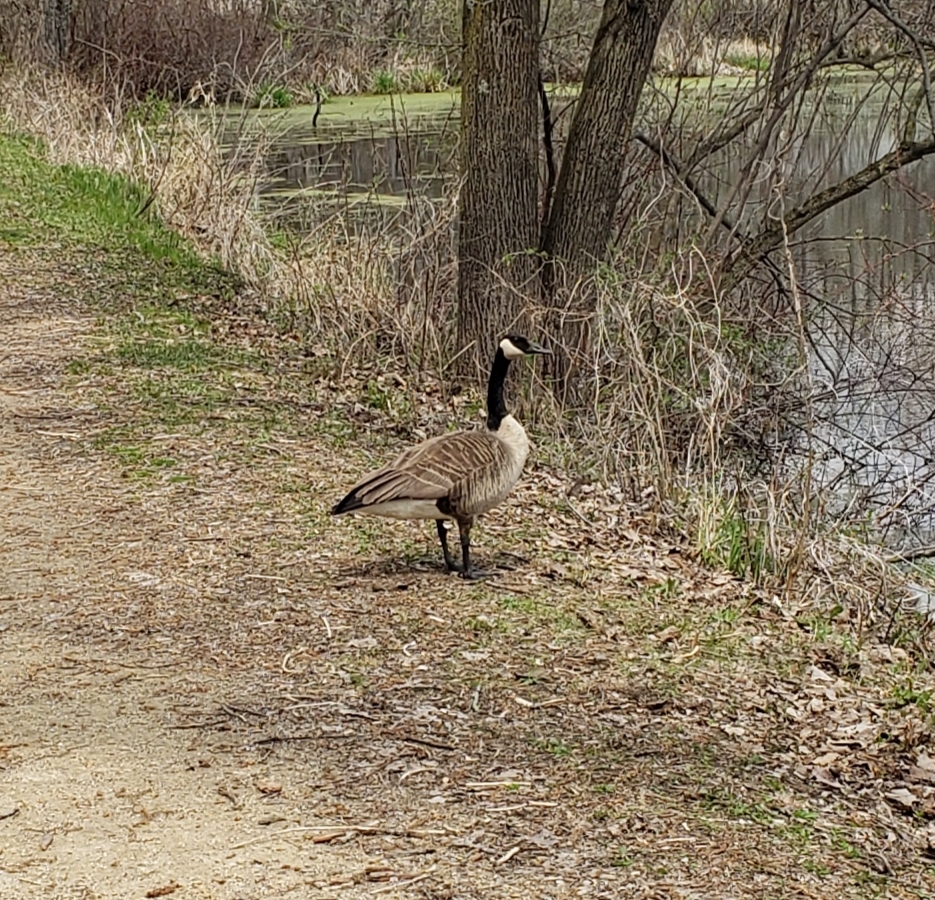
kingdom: Animalia
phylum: Chordata
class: Aves
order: Anseriformes
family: Anatidae
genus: Branta
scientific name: Branta canadensis
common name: Canada goose
